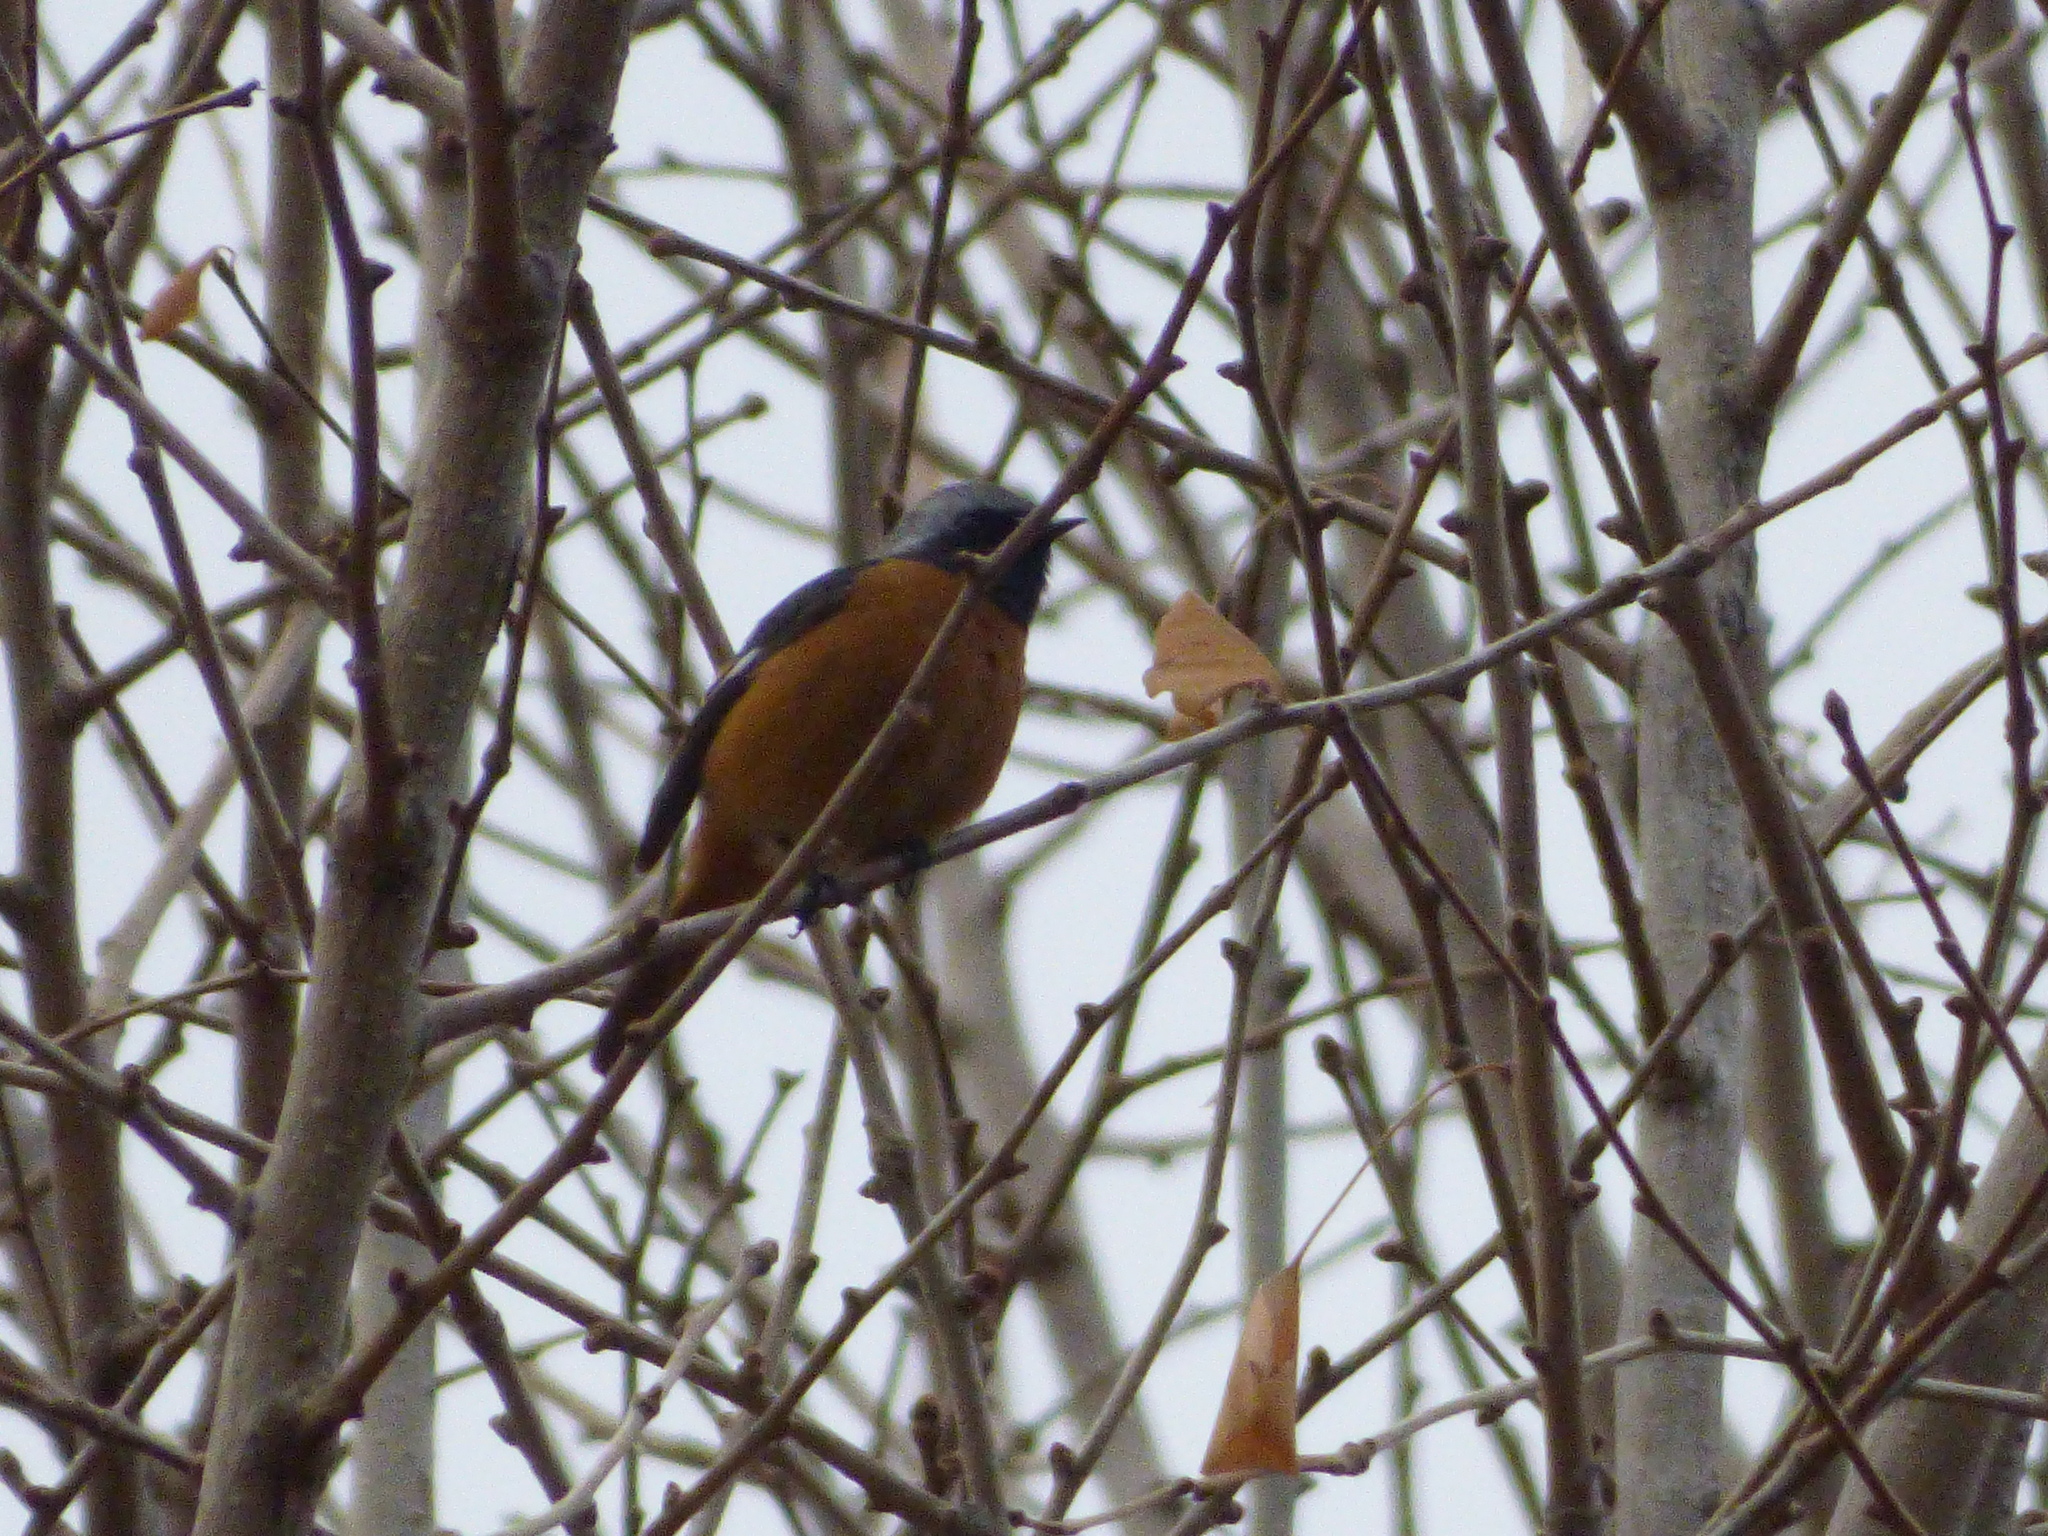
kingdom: Animalia
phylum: Chordata
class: Aves
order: Passeriformes
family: Muscicapidae
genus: Phoenicurus
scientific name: Phoenicurus auroreus
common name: Daurian redstart
